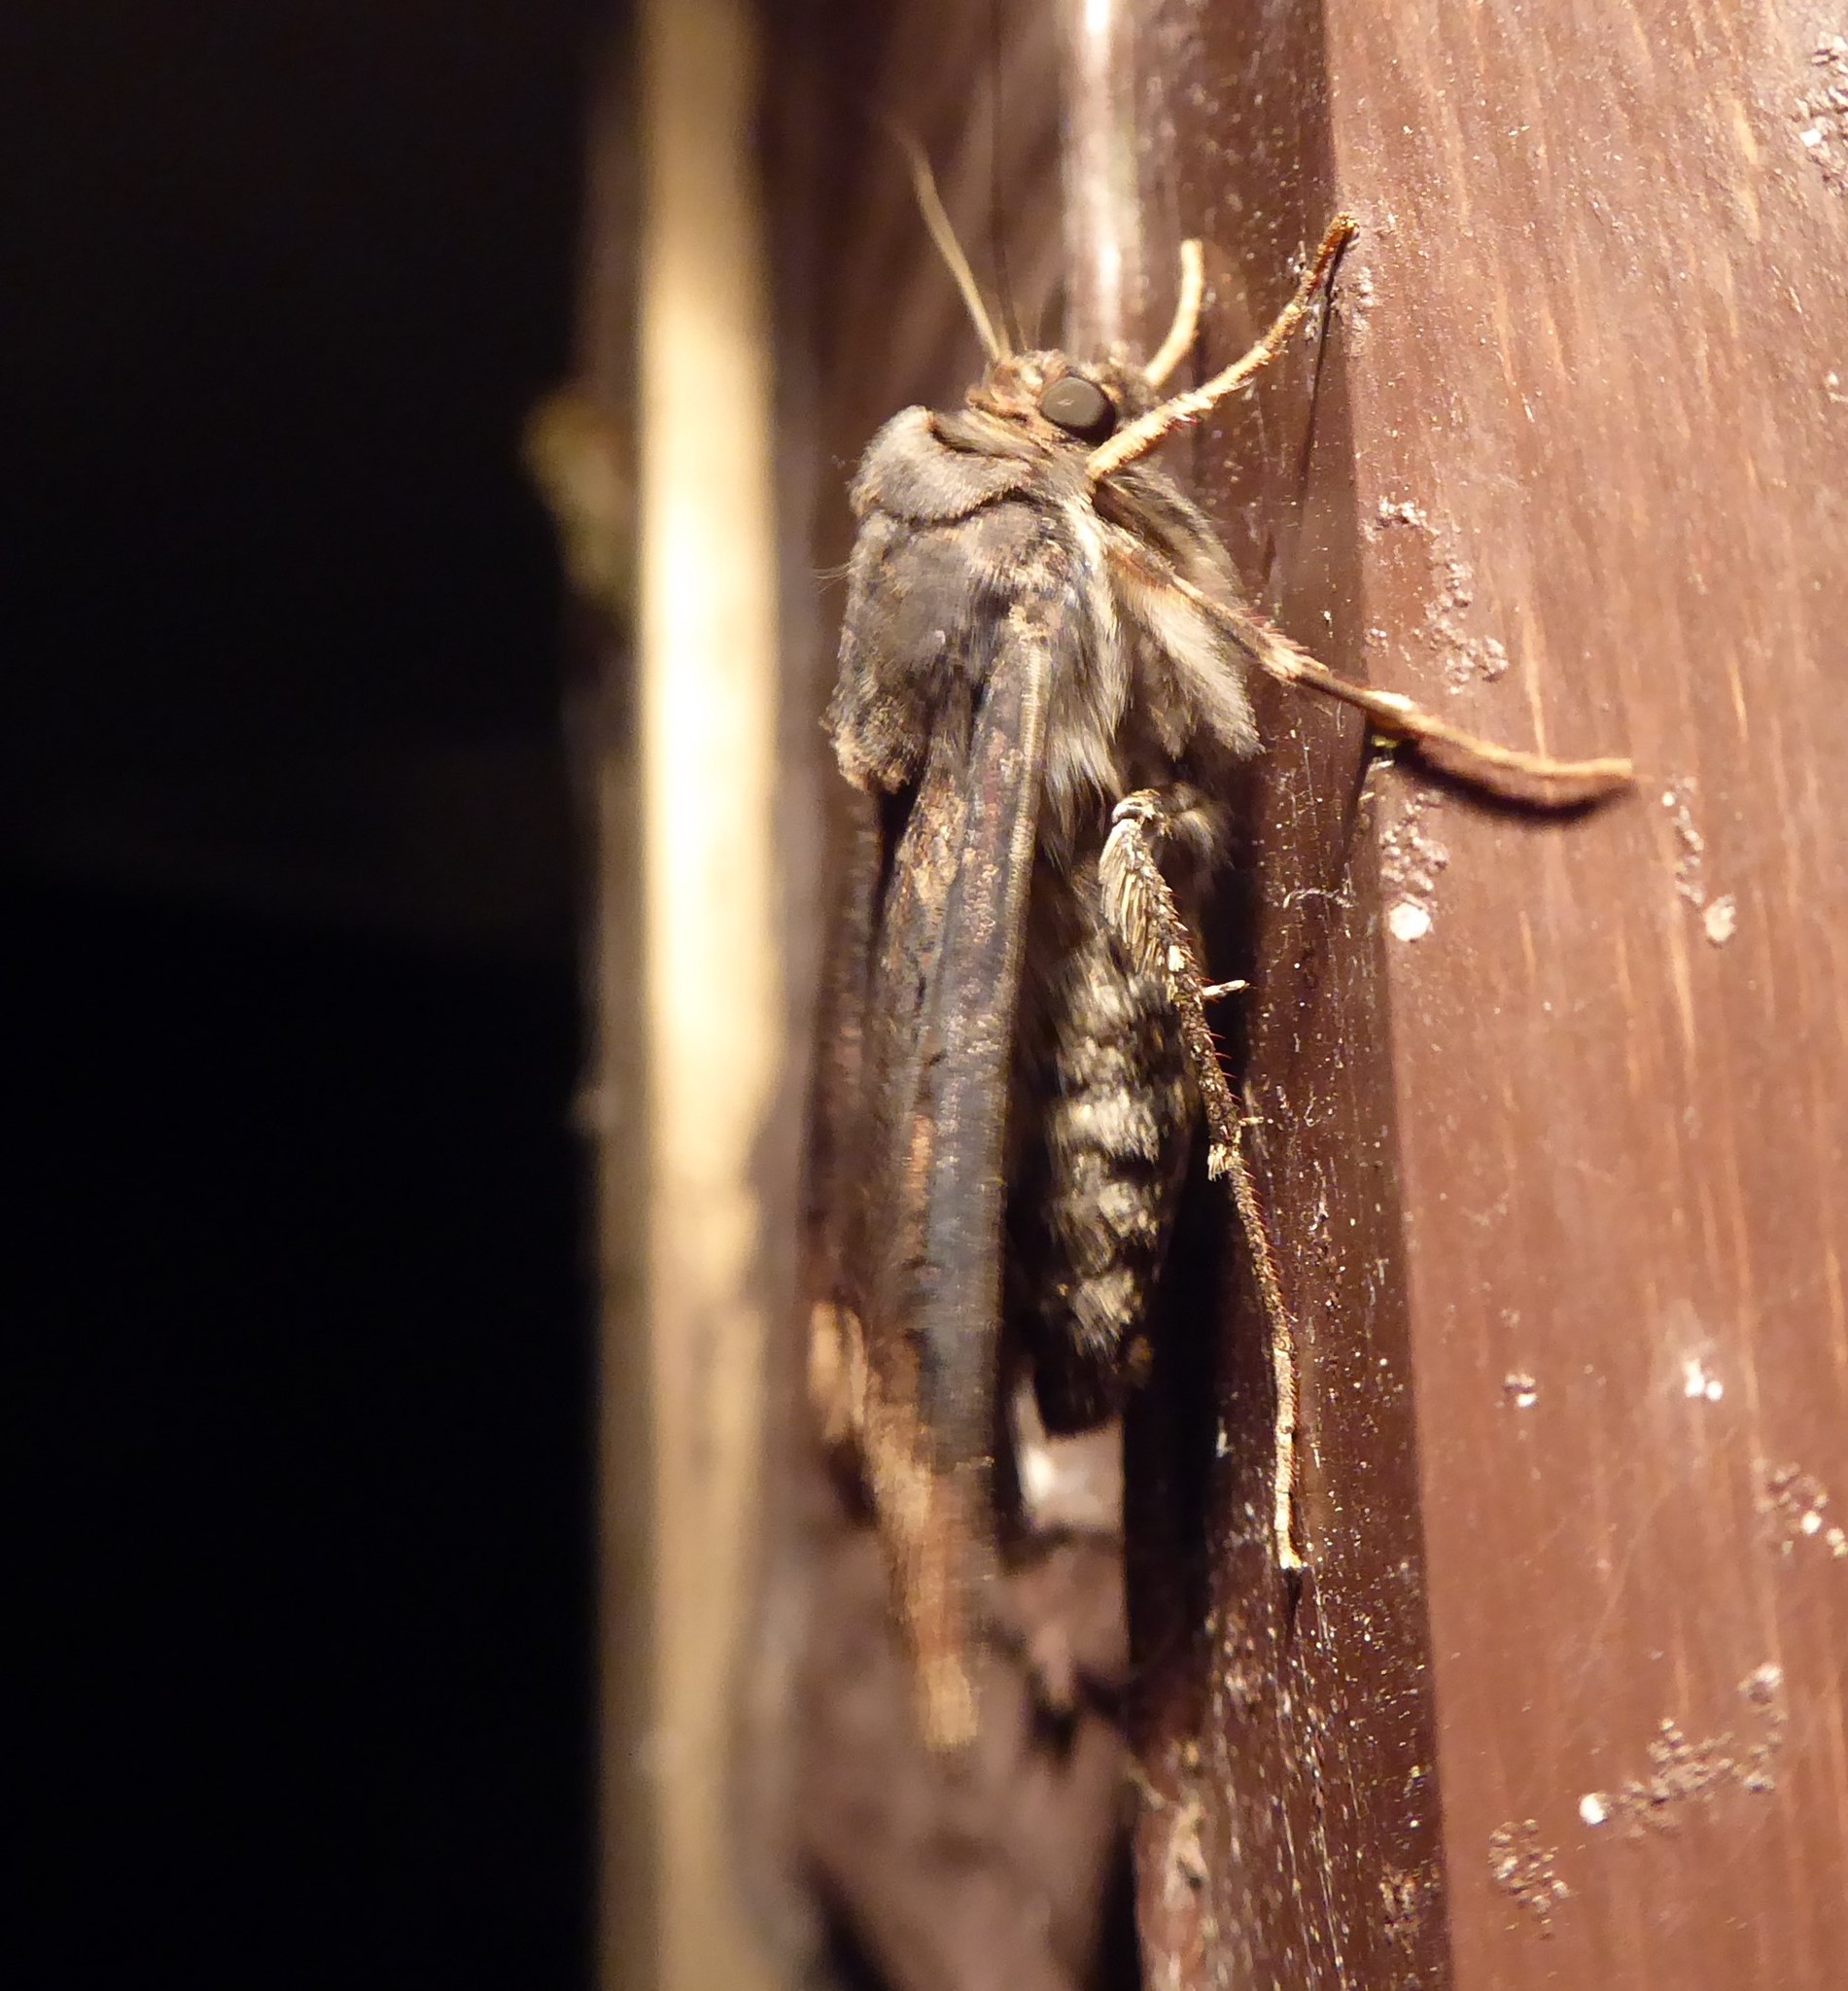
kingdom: Animalia
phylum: Arthropoda
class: Insecta
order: Lepidoptera
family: Noctuidae
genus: Agrotis
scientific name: Agrotis ipsilon
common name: Dark sword-grass
